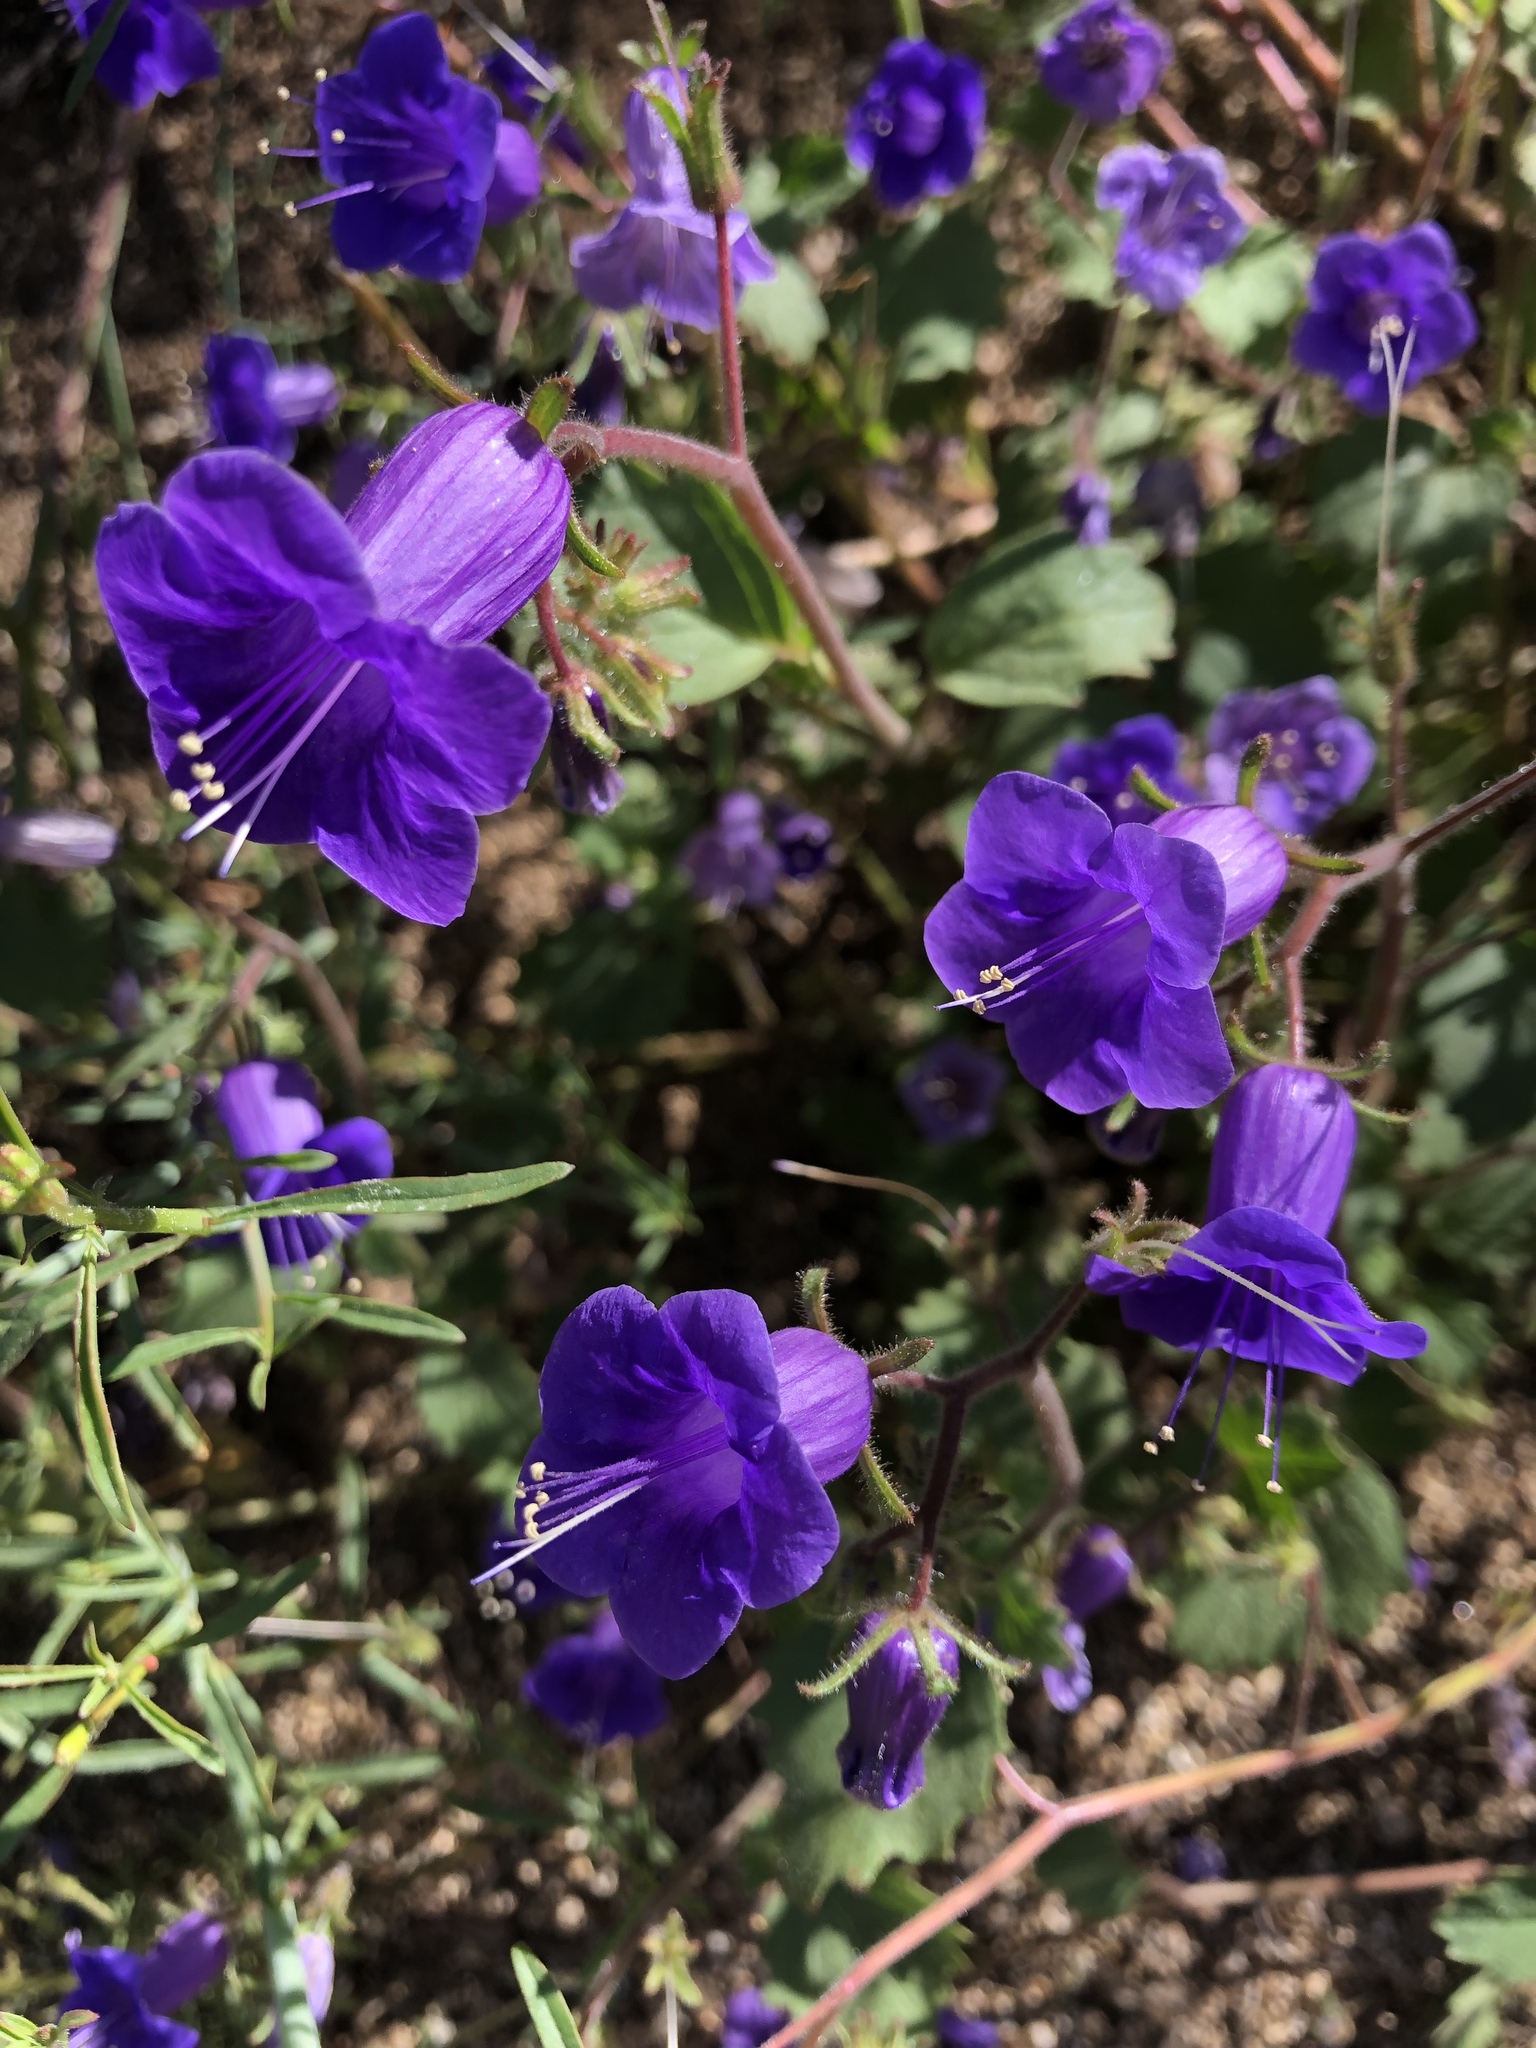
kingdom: Plantae
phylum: Tracheophyta
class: Magnoliopsida
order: Boraginales
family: Hydrophyllaceae
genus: Phacelia
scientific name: Phacelia minor
